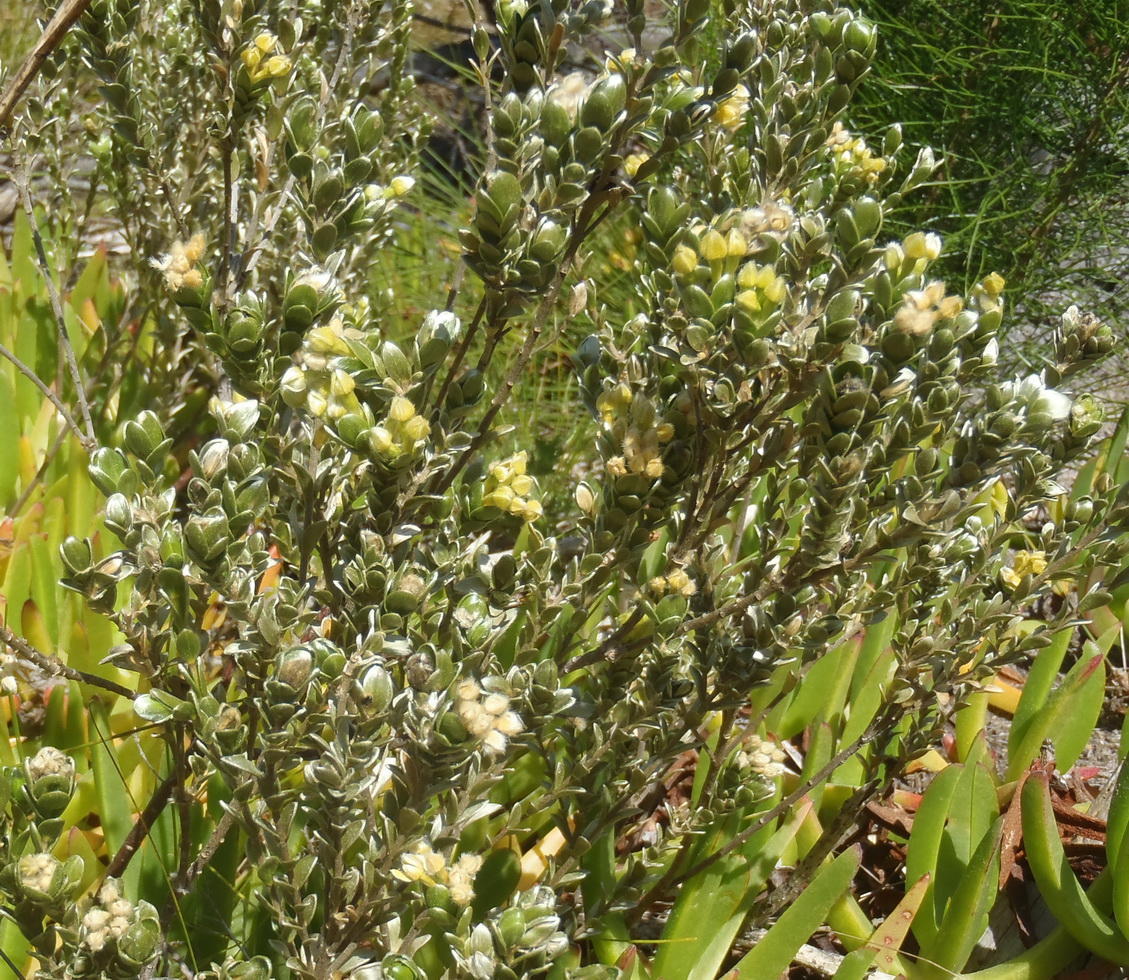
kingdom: Plantae
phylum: Tracheophyta
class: Magnoliopsida
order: Malvales
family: Thymelaeaceae
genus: Gnidia
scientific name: Gnidia chrysophylla
